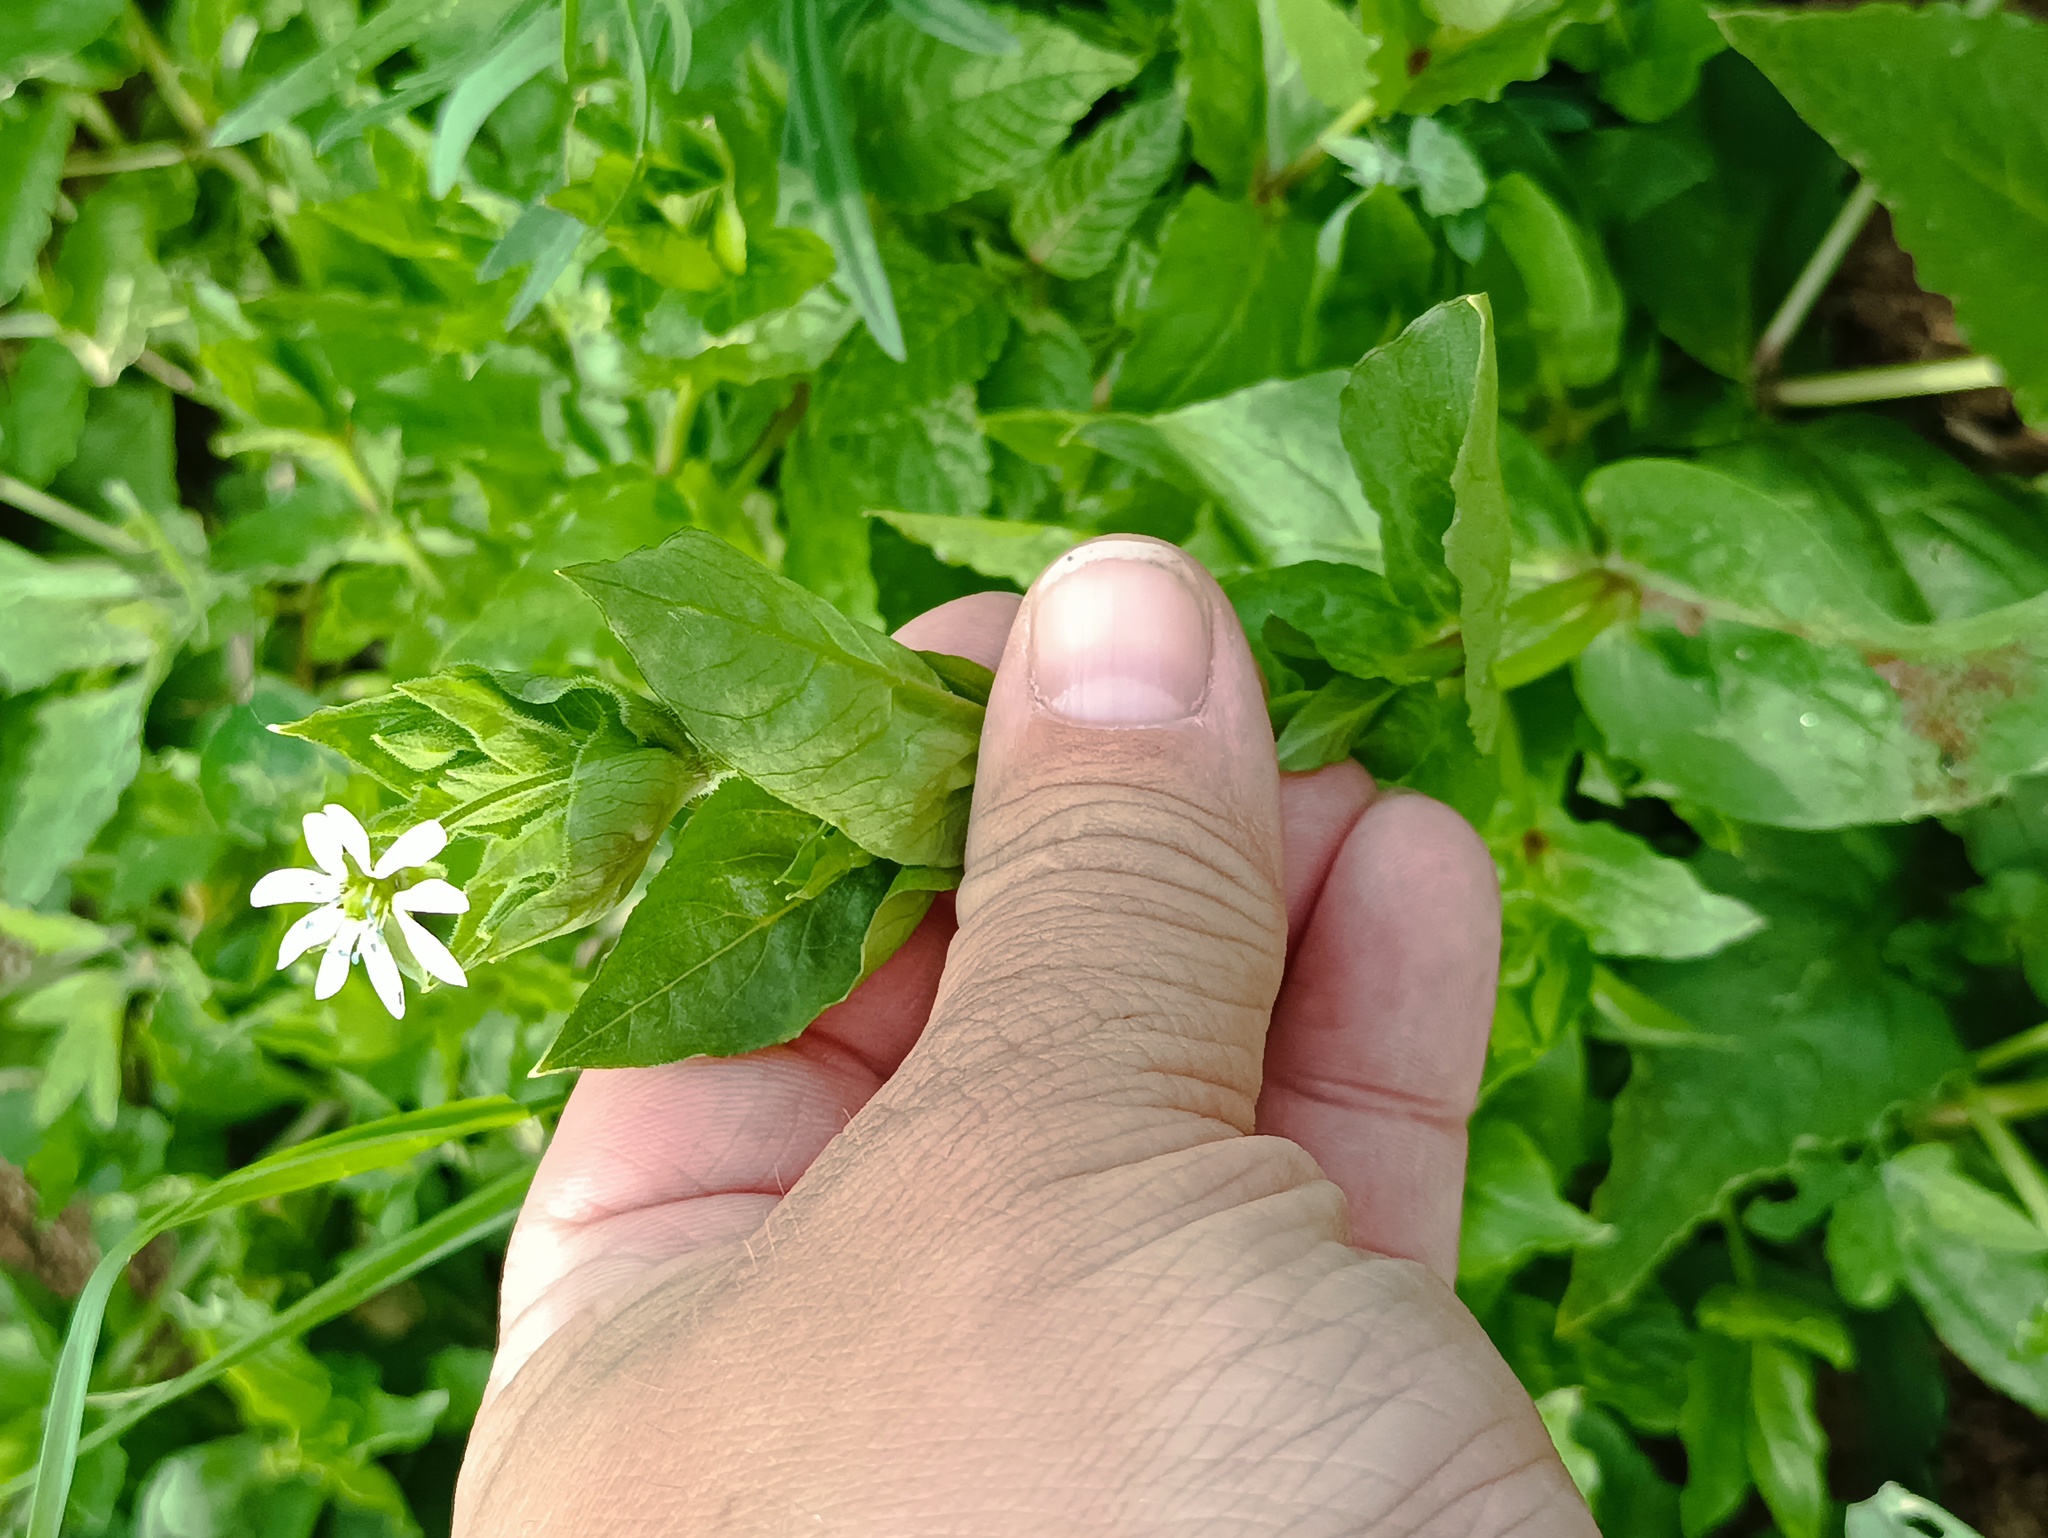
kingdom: Plantae
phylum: Tracheophyta
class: Magnoliopsida
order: Caryophyllales
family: Caryophyllaceae
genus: Stellaria
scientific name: Stellaria aquatica
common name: Water chickweed
